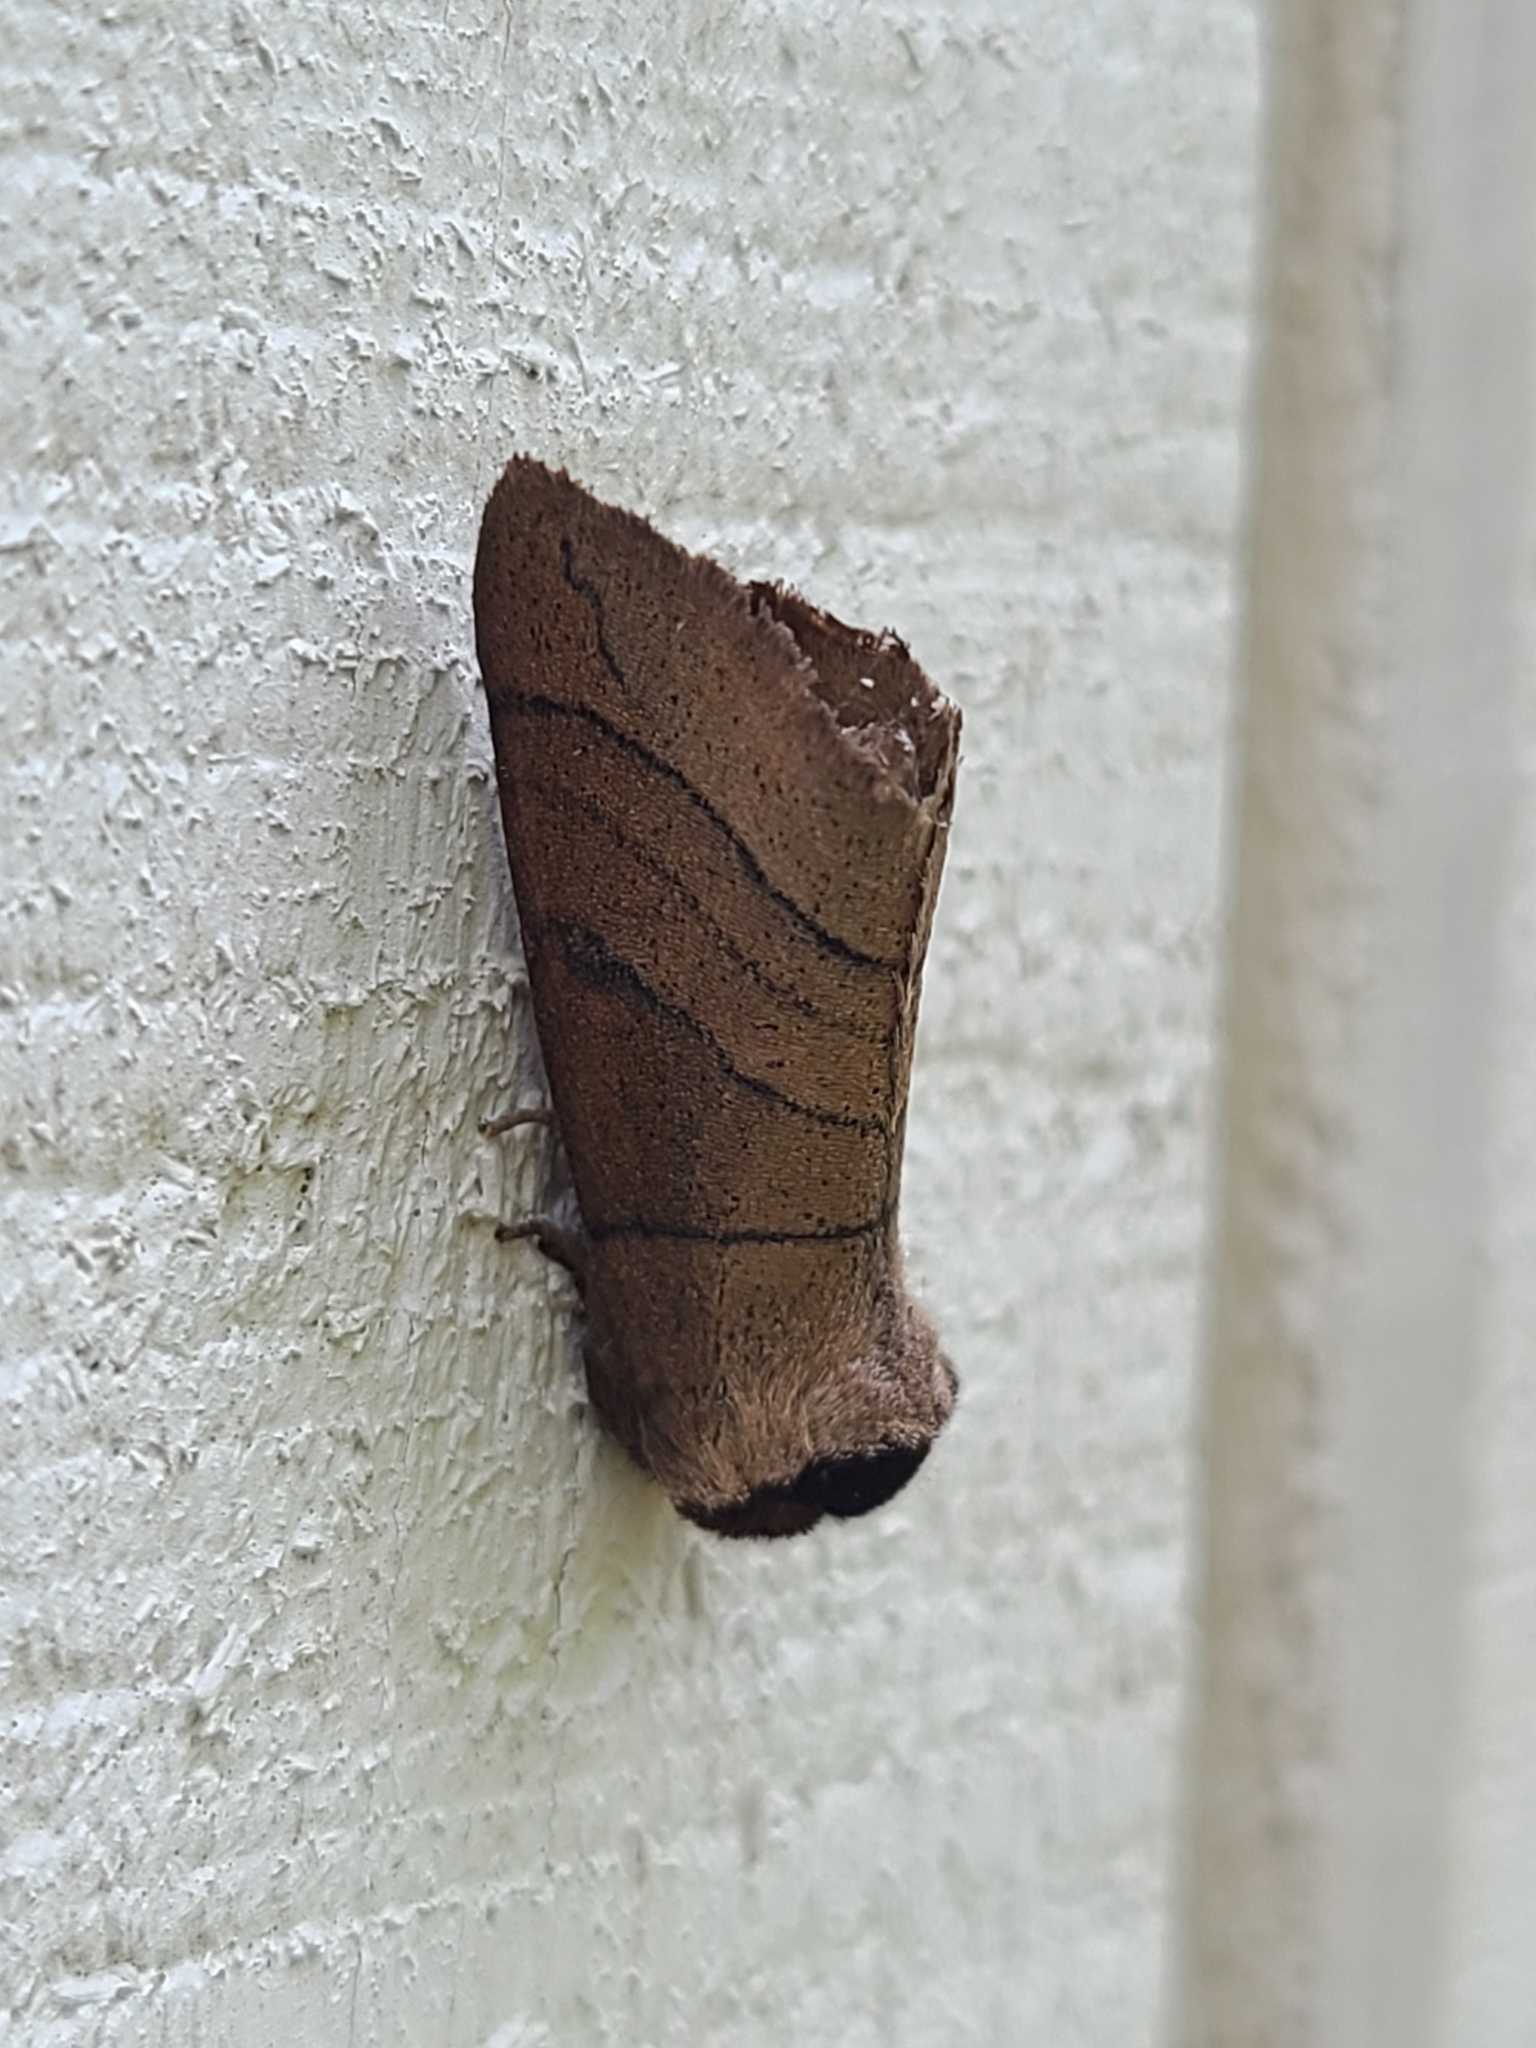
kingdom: Animalia
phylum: Arthropoda
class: Insecta
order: Lepidoptera
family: Notodontidae
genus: Datana
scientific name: Datana angusii
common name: Angus's datana
